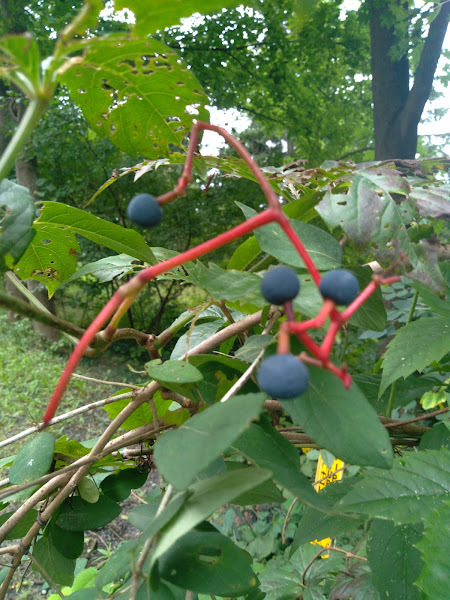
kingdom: Plantae
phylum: Tracheophyta
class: Magnoliopsida
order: Vitales
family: Vitaceae
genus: Parthenocissus
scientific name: Parthenocissus quinquefolia
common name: Virginia-creeper
